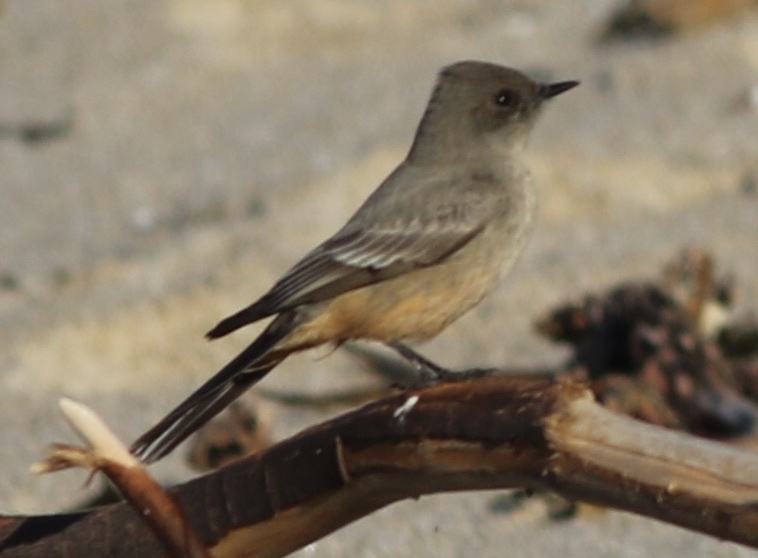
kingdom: Animalia
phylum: Chordata
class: Aves
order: Passeriformes
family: Tyrannidae
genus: Sayornis
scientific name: Sayornis saya
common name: Say's phoebe
